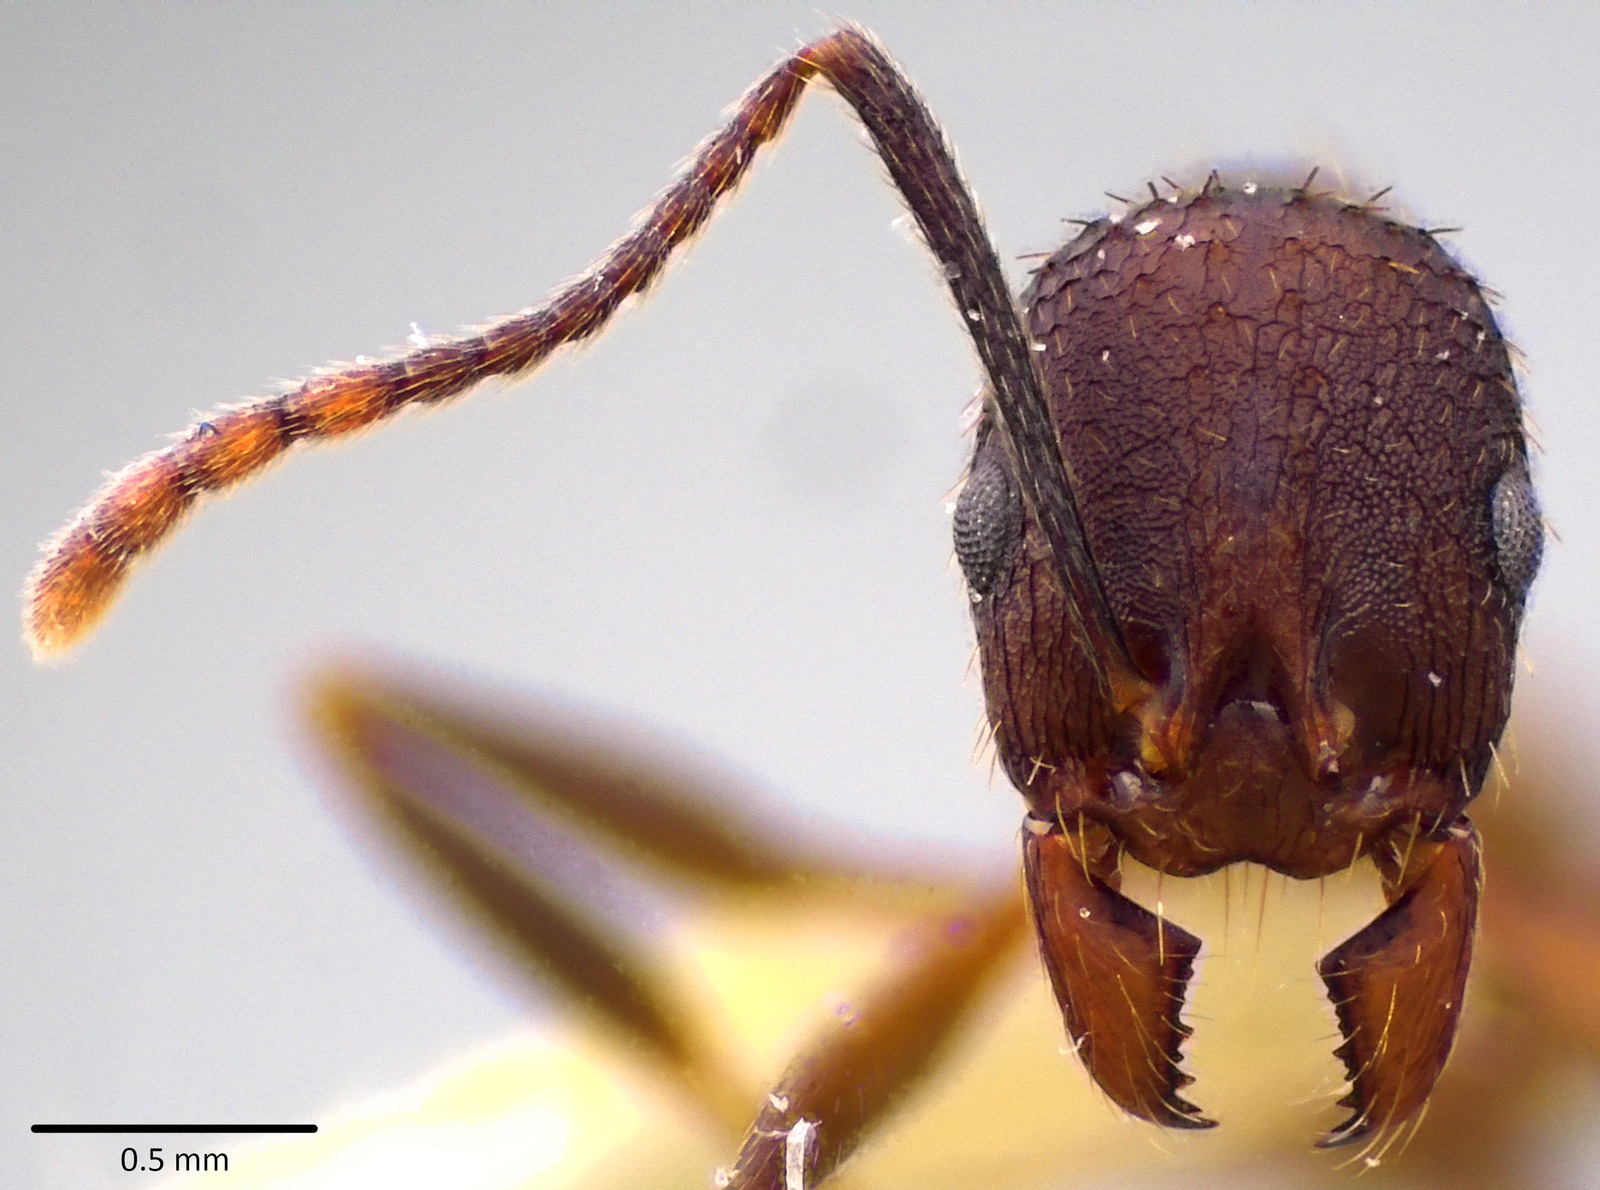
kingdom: Animalia
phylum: Arthropoda
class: Insecta
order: Hymenoptera
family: Formicidae
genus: Aphaenogaster
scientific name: Aphaenogaster fulva
